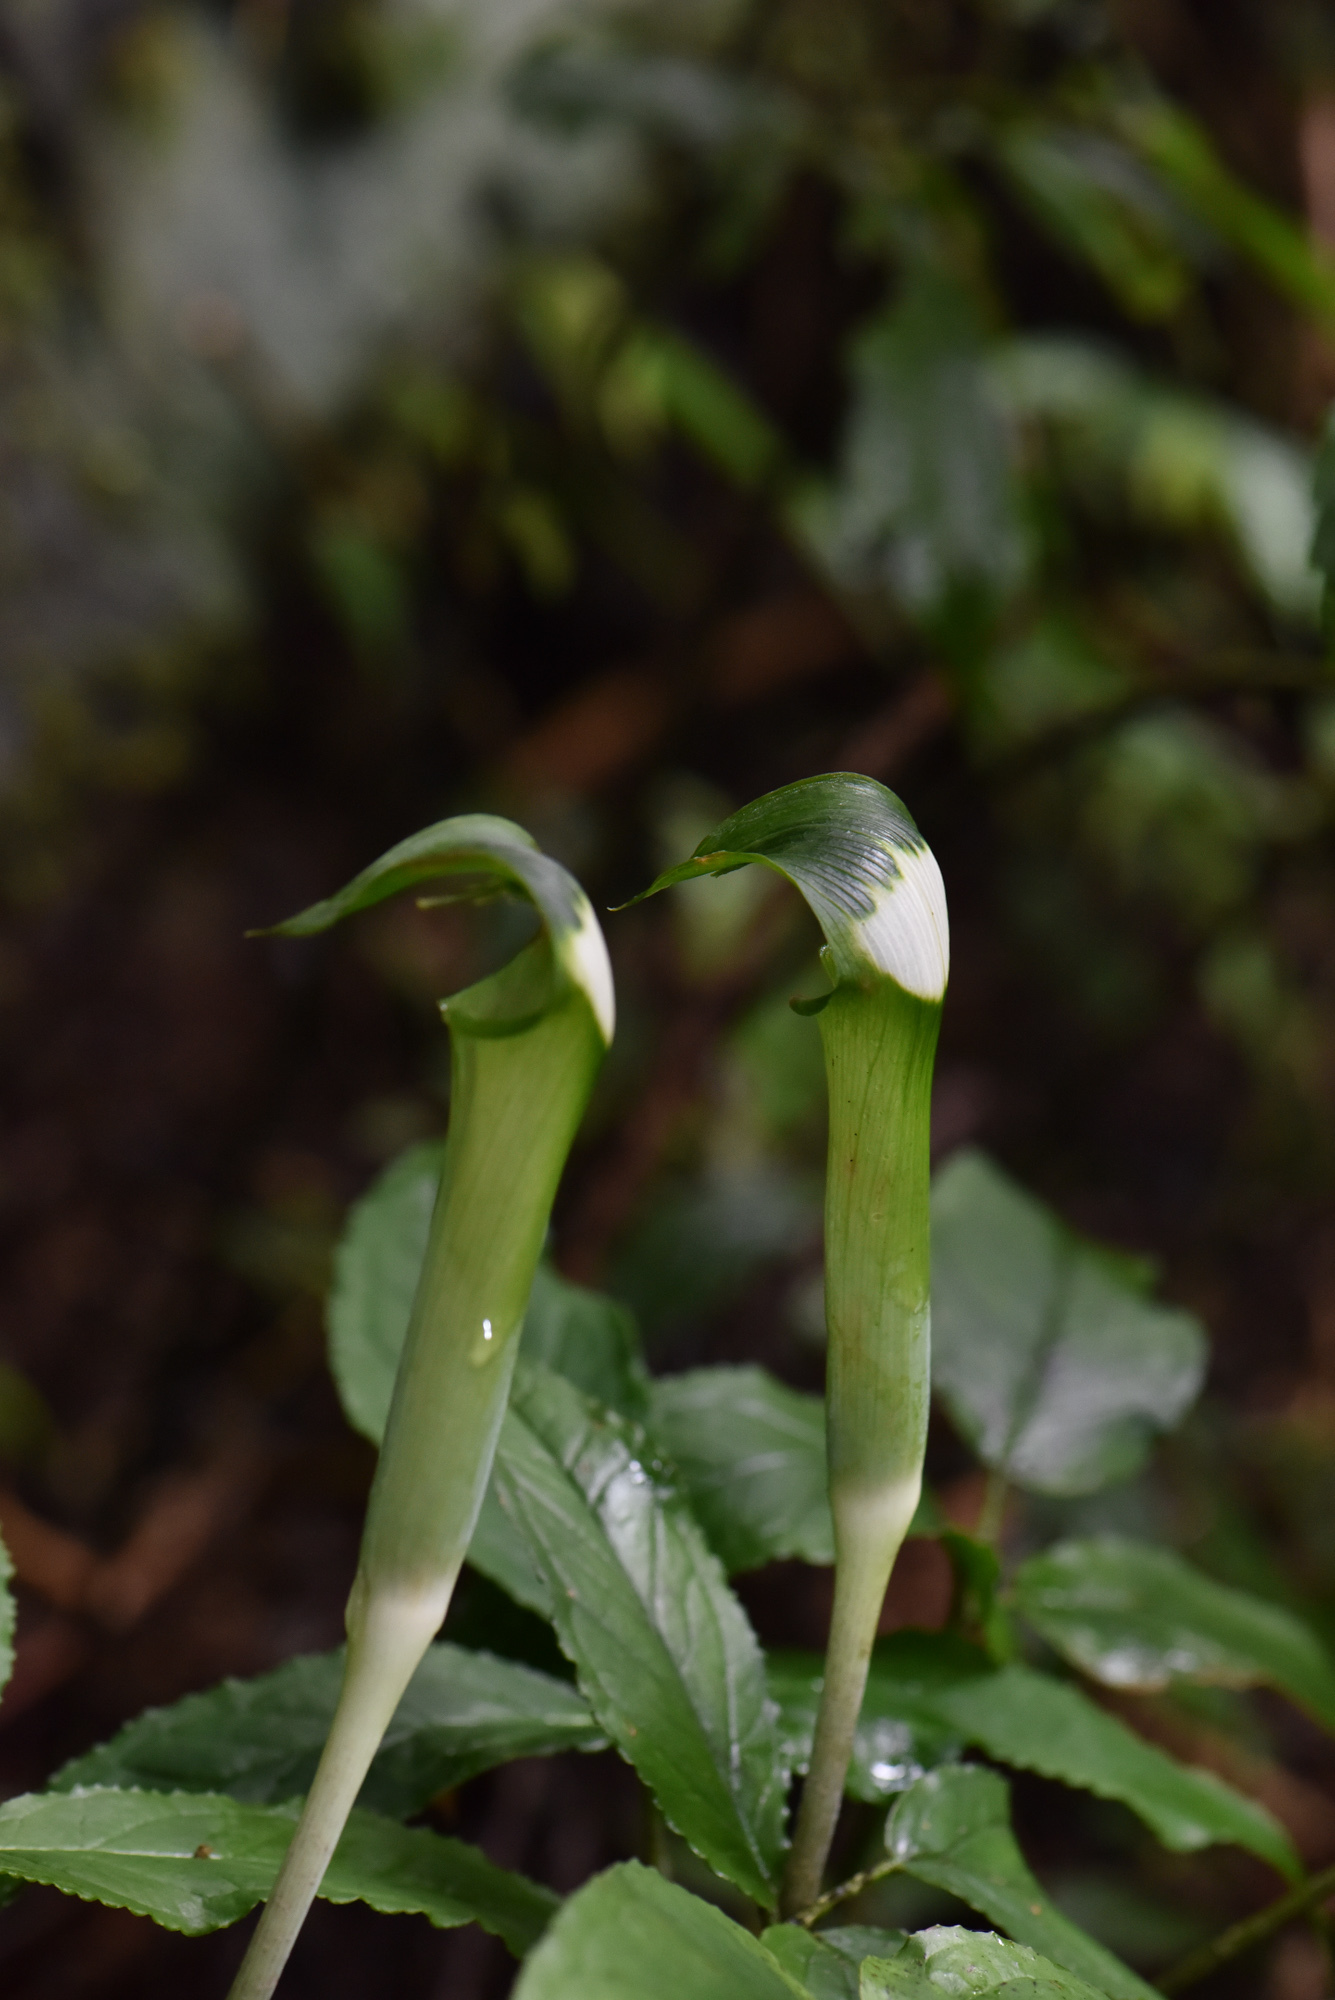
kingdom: Plantae
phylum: Tracheophyta
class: Liliopsida
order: Alismatales
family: Araceae
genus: Arisaema
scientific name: Arisaema grapsospadix
